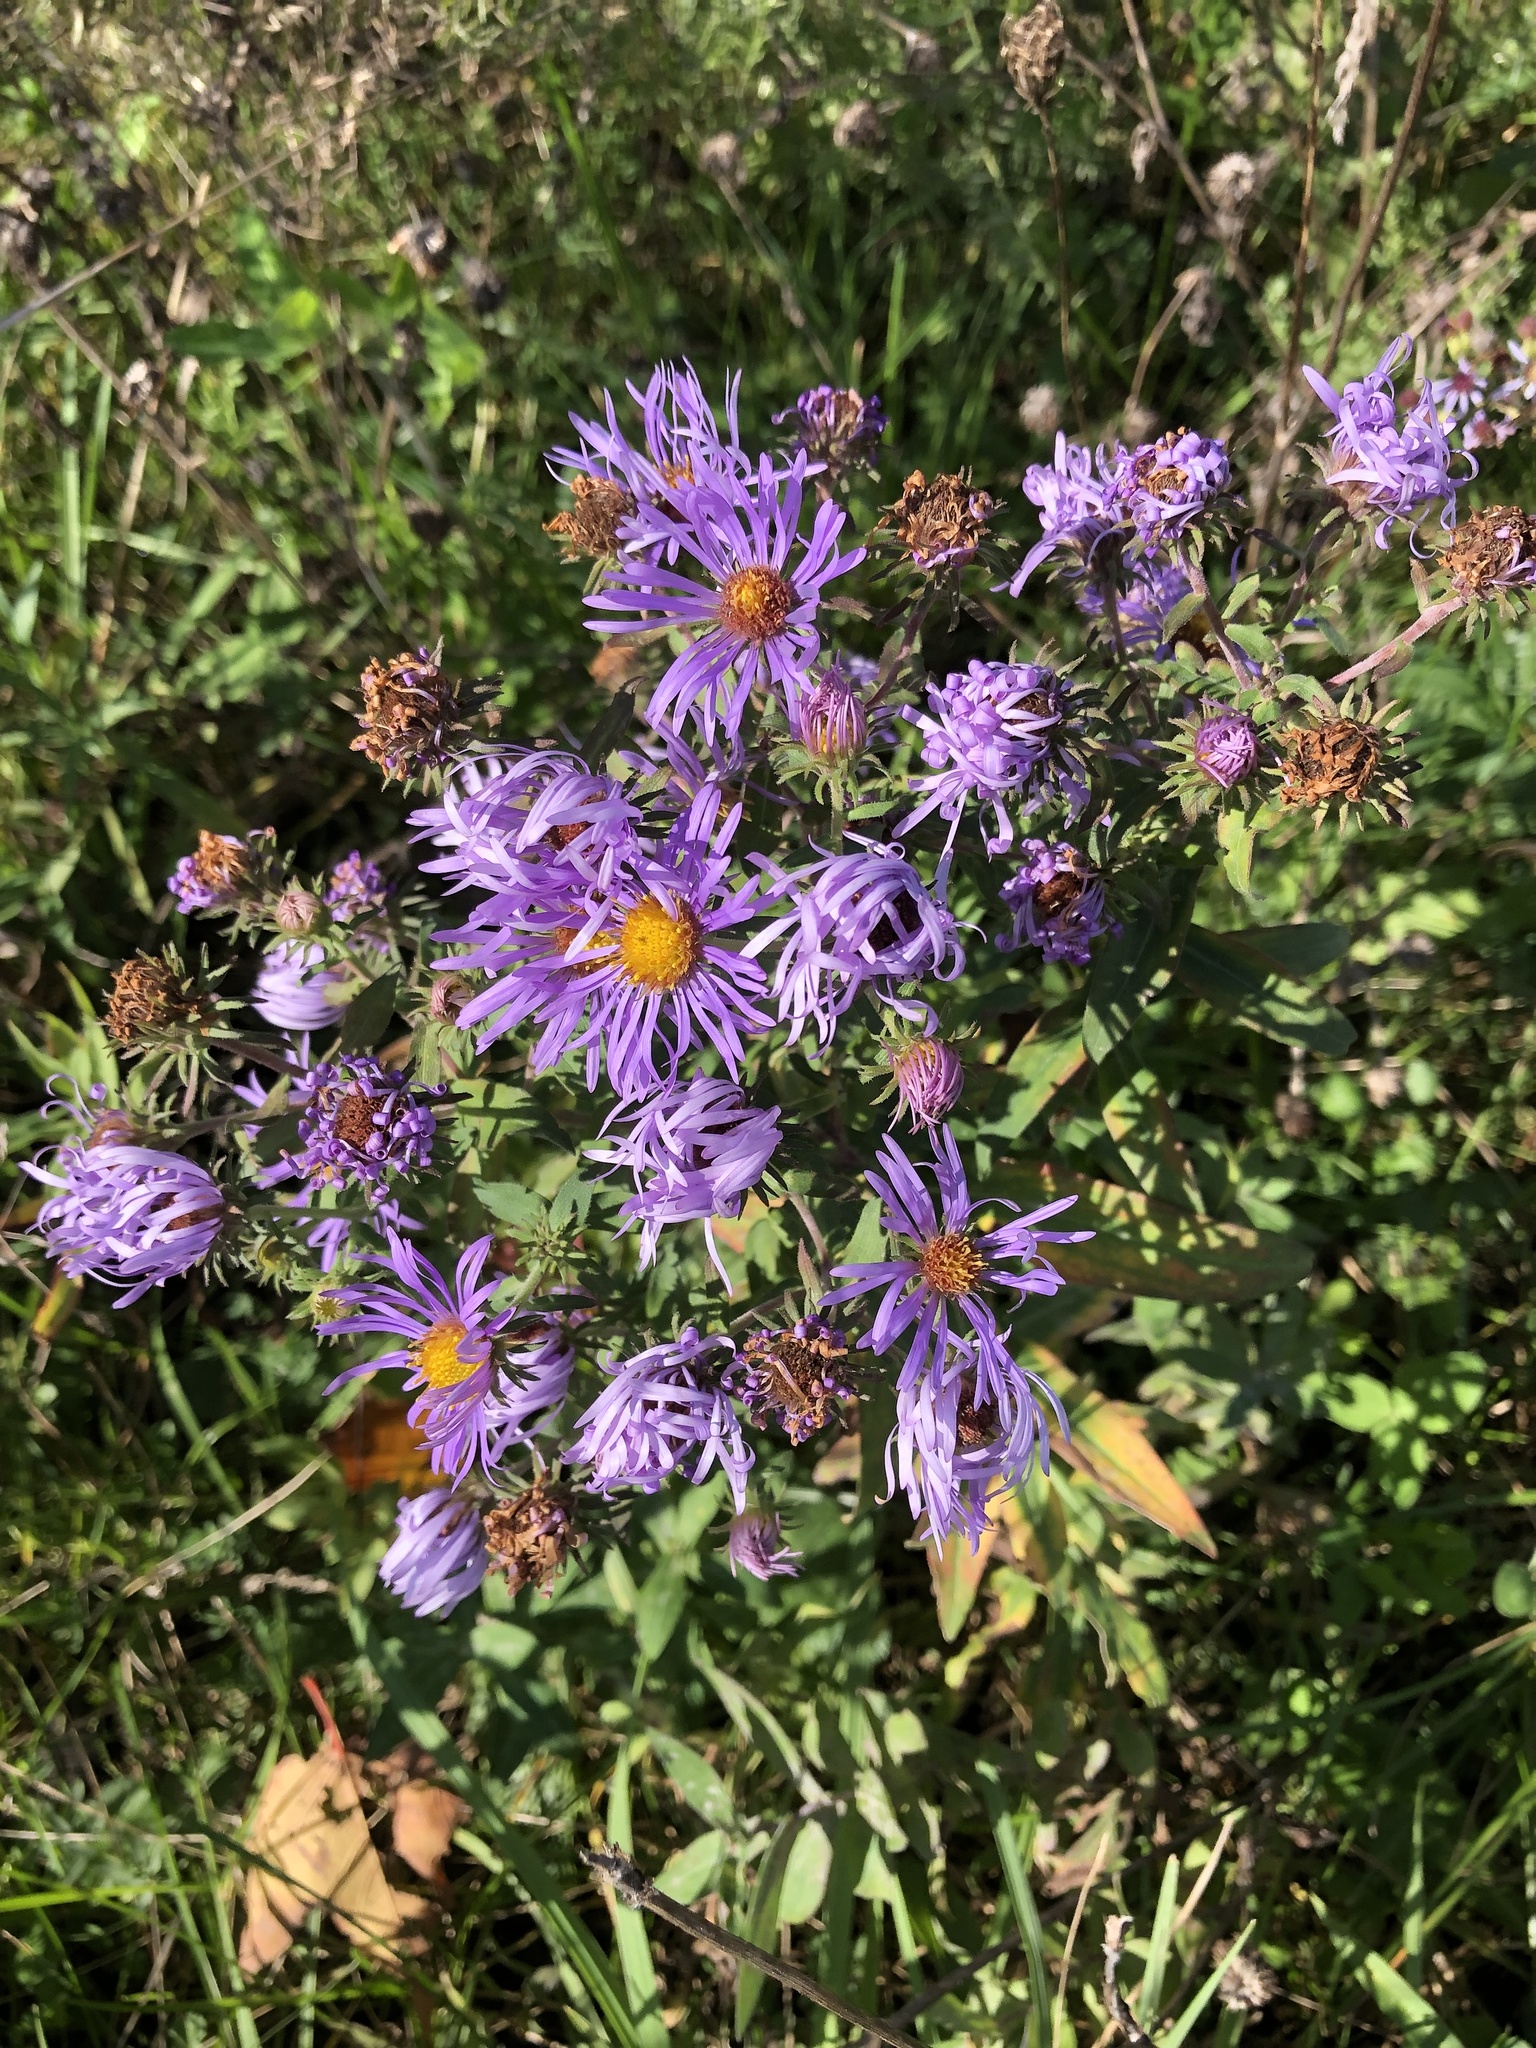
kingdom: Plantae
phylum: Tracheophyta
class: Magnoliopsida
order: Asterales
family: Asteraceae
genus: Symphyotrichum
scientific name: Symphyotrichum novae-angliae
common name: Michaelmas daisy
